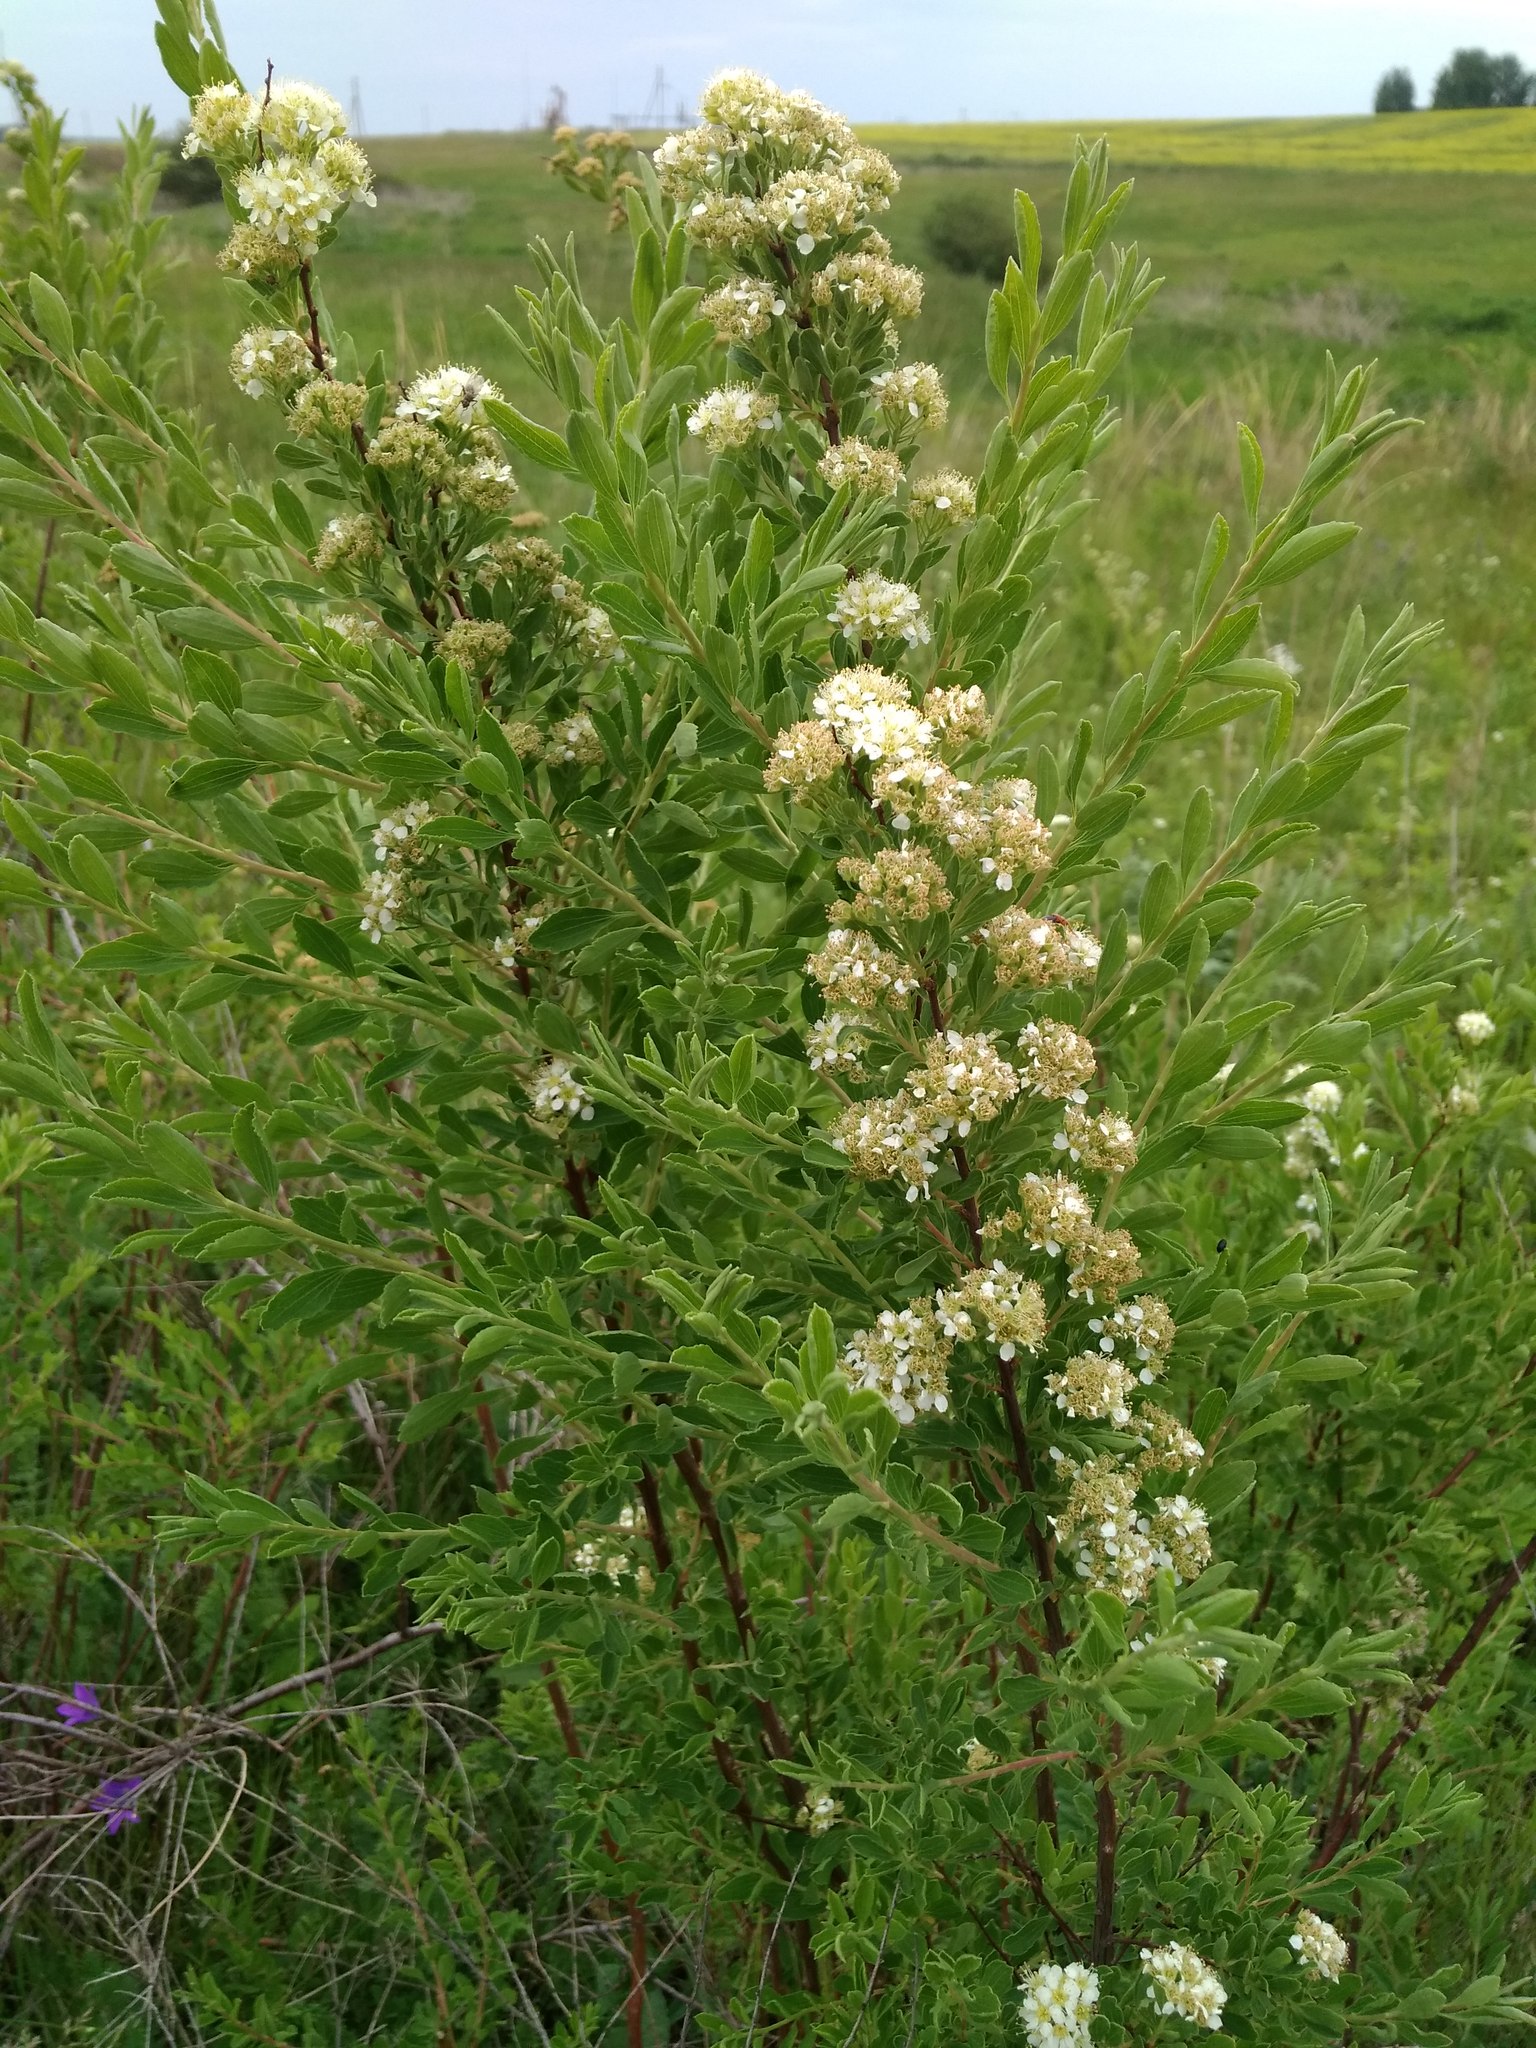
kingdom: Plantae
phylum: Tracheophyta
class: Magnoliopsida
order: Rosales
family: Rosaceae
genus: Spiraea
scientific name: Spiraea crenata
